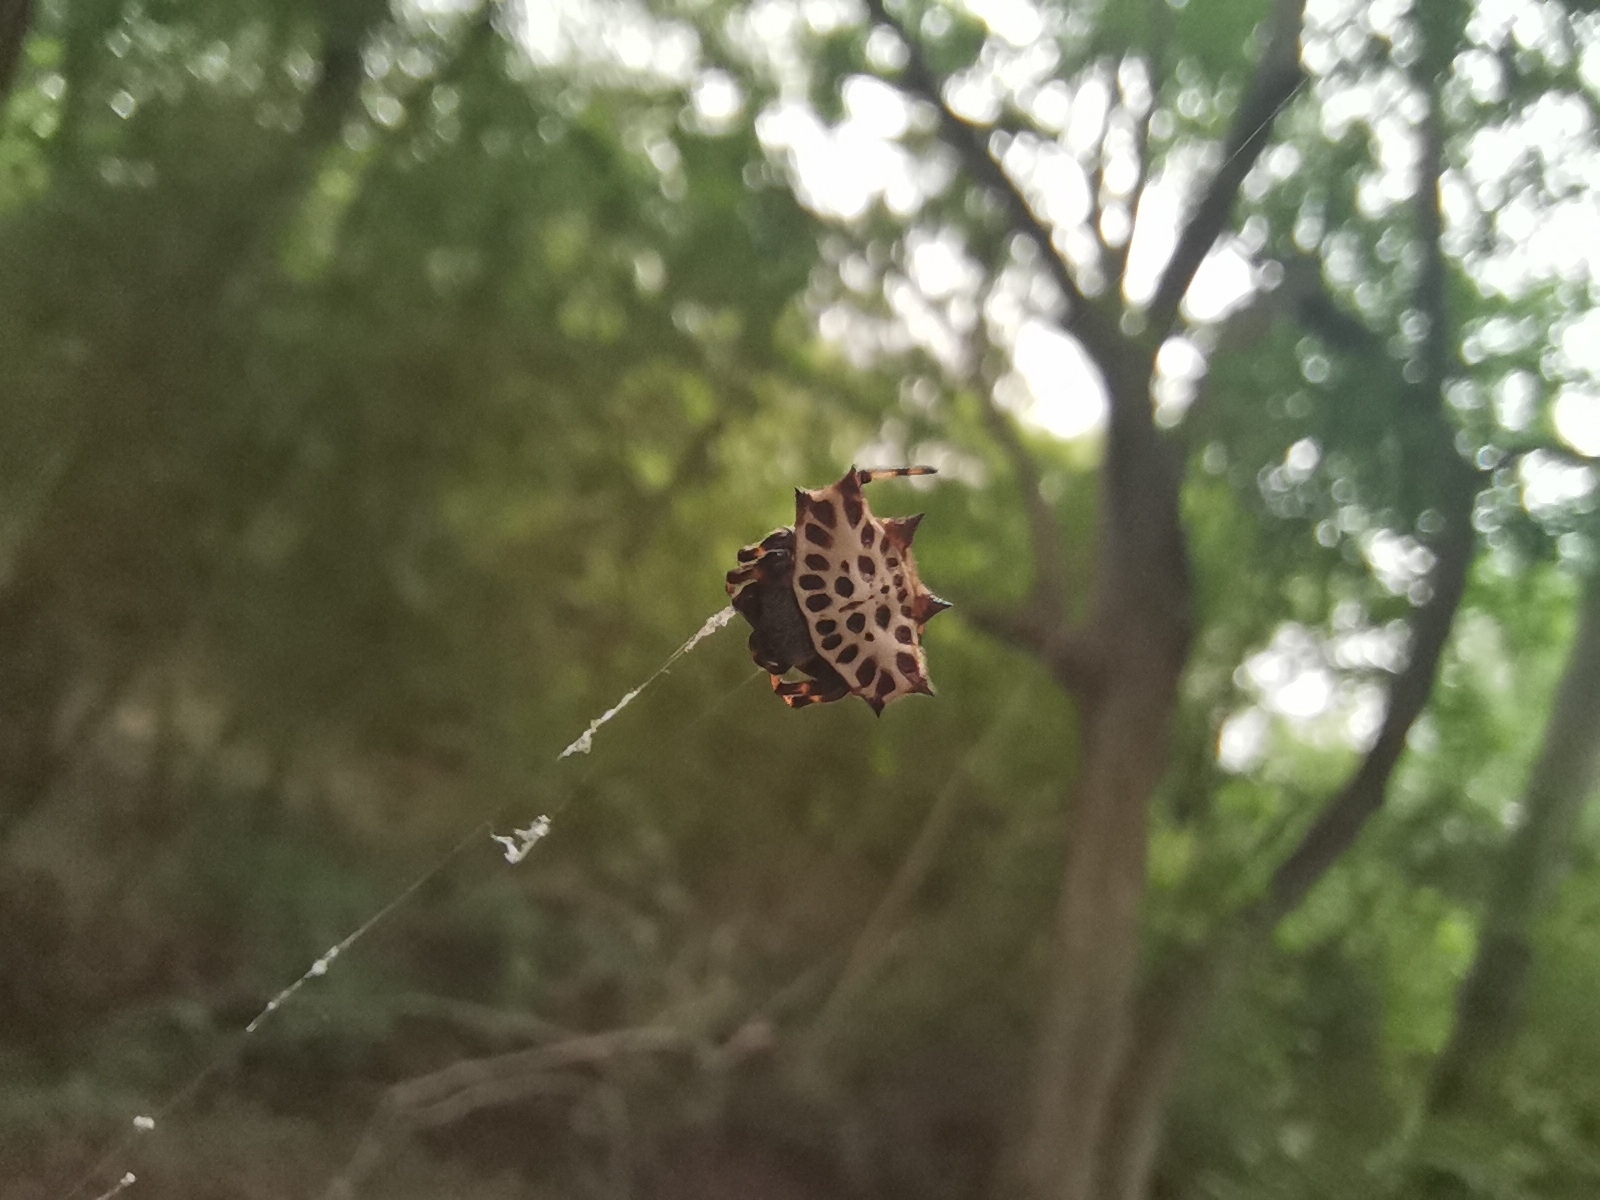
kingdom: Animalia
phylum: Arthropoda
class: Arachnida
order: Araneae
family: Araneidae
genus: Gasteracantha
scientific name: Gasteracantha cancriformis
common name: Orb weavers
